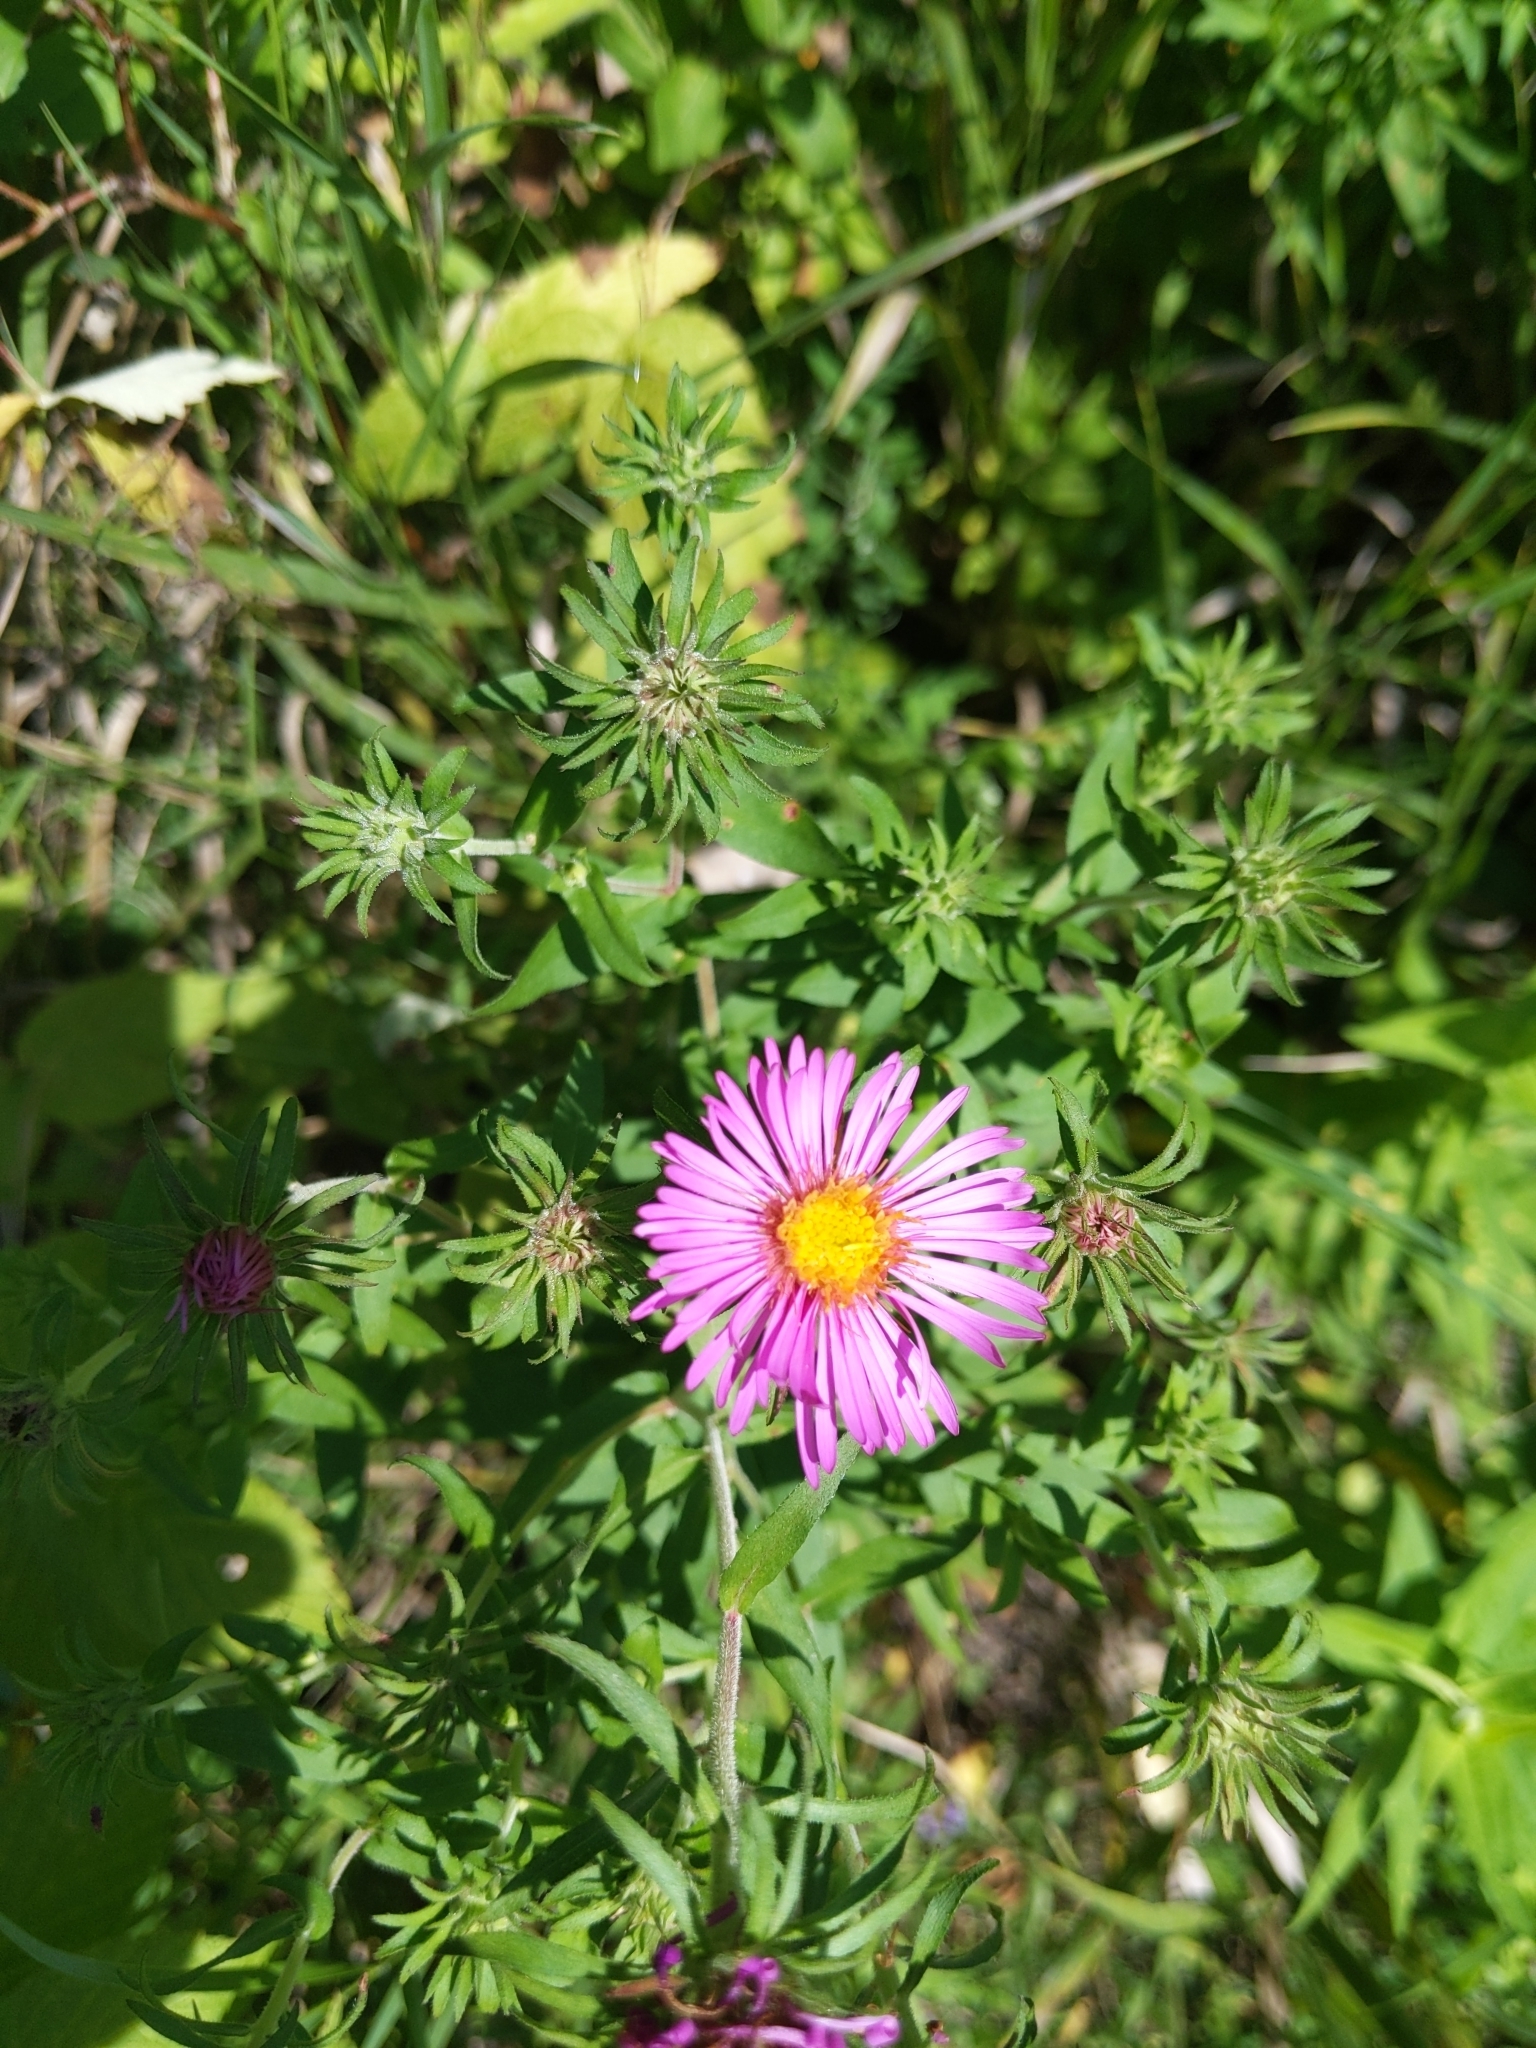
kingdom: Plantae
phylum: Tracheophyta
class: Magnoliopsida
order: Asterales
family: Asteraceae
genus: Symphyotrichum
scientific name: Symphyotrichum novae-angliae
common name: Michaelmas daisy
